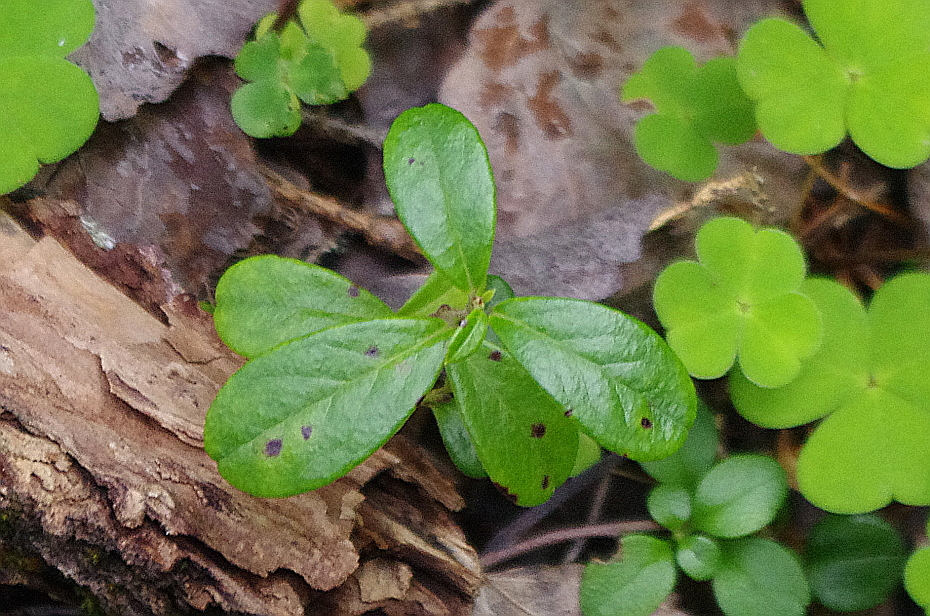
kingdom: Fungi
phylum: Ascomycota
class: Dothideomycetes
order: Mycosphaerellales
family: Mycosphaerellaceae
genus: Mycosphaerella
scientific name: Mycosphaerella stemmatea
